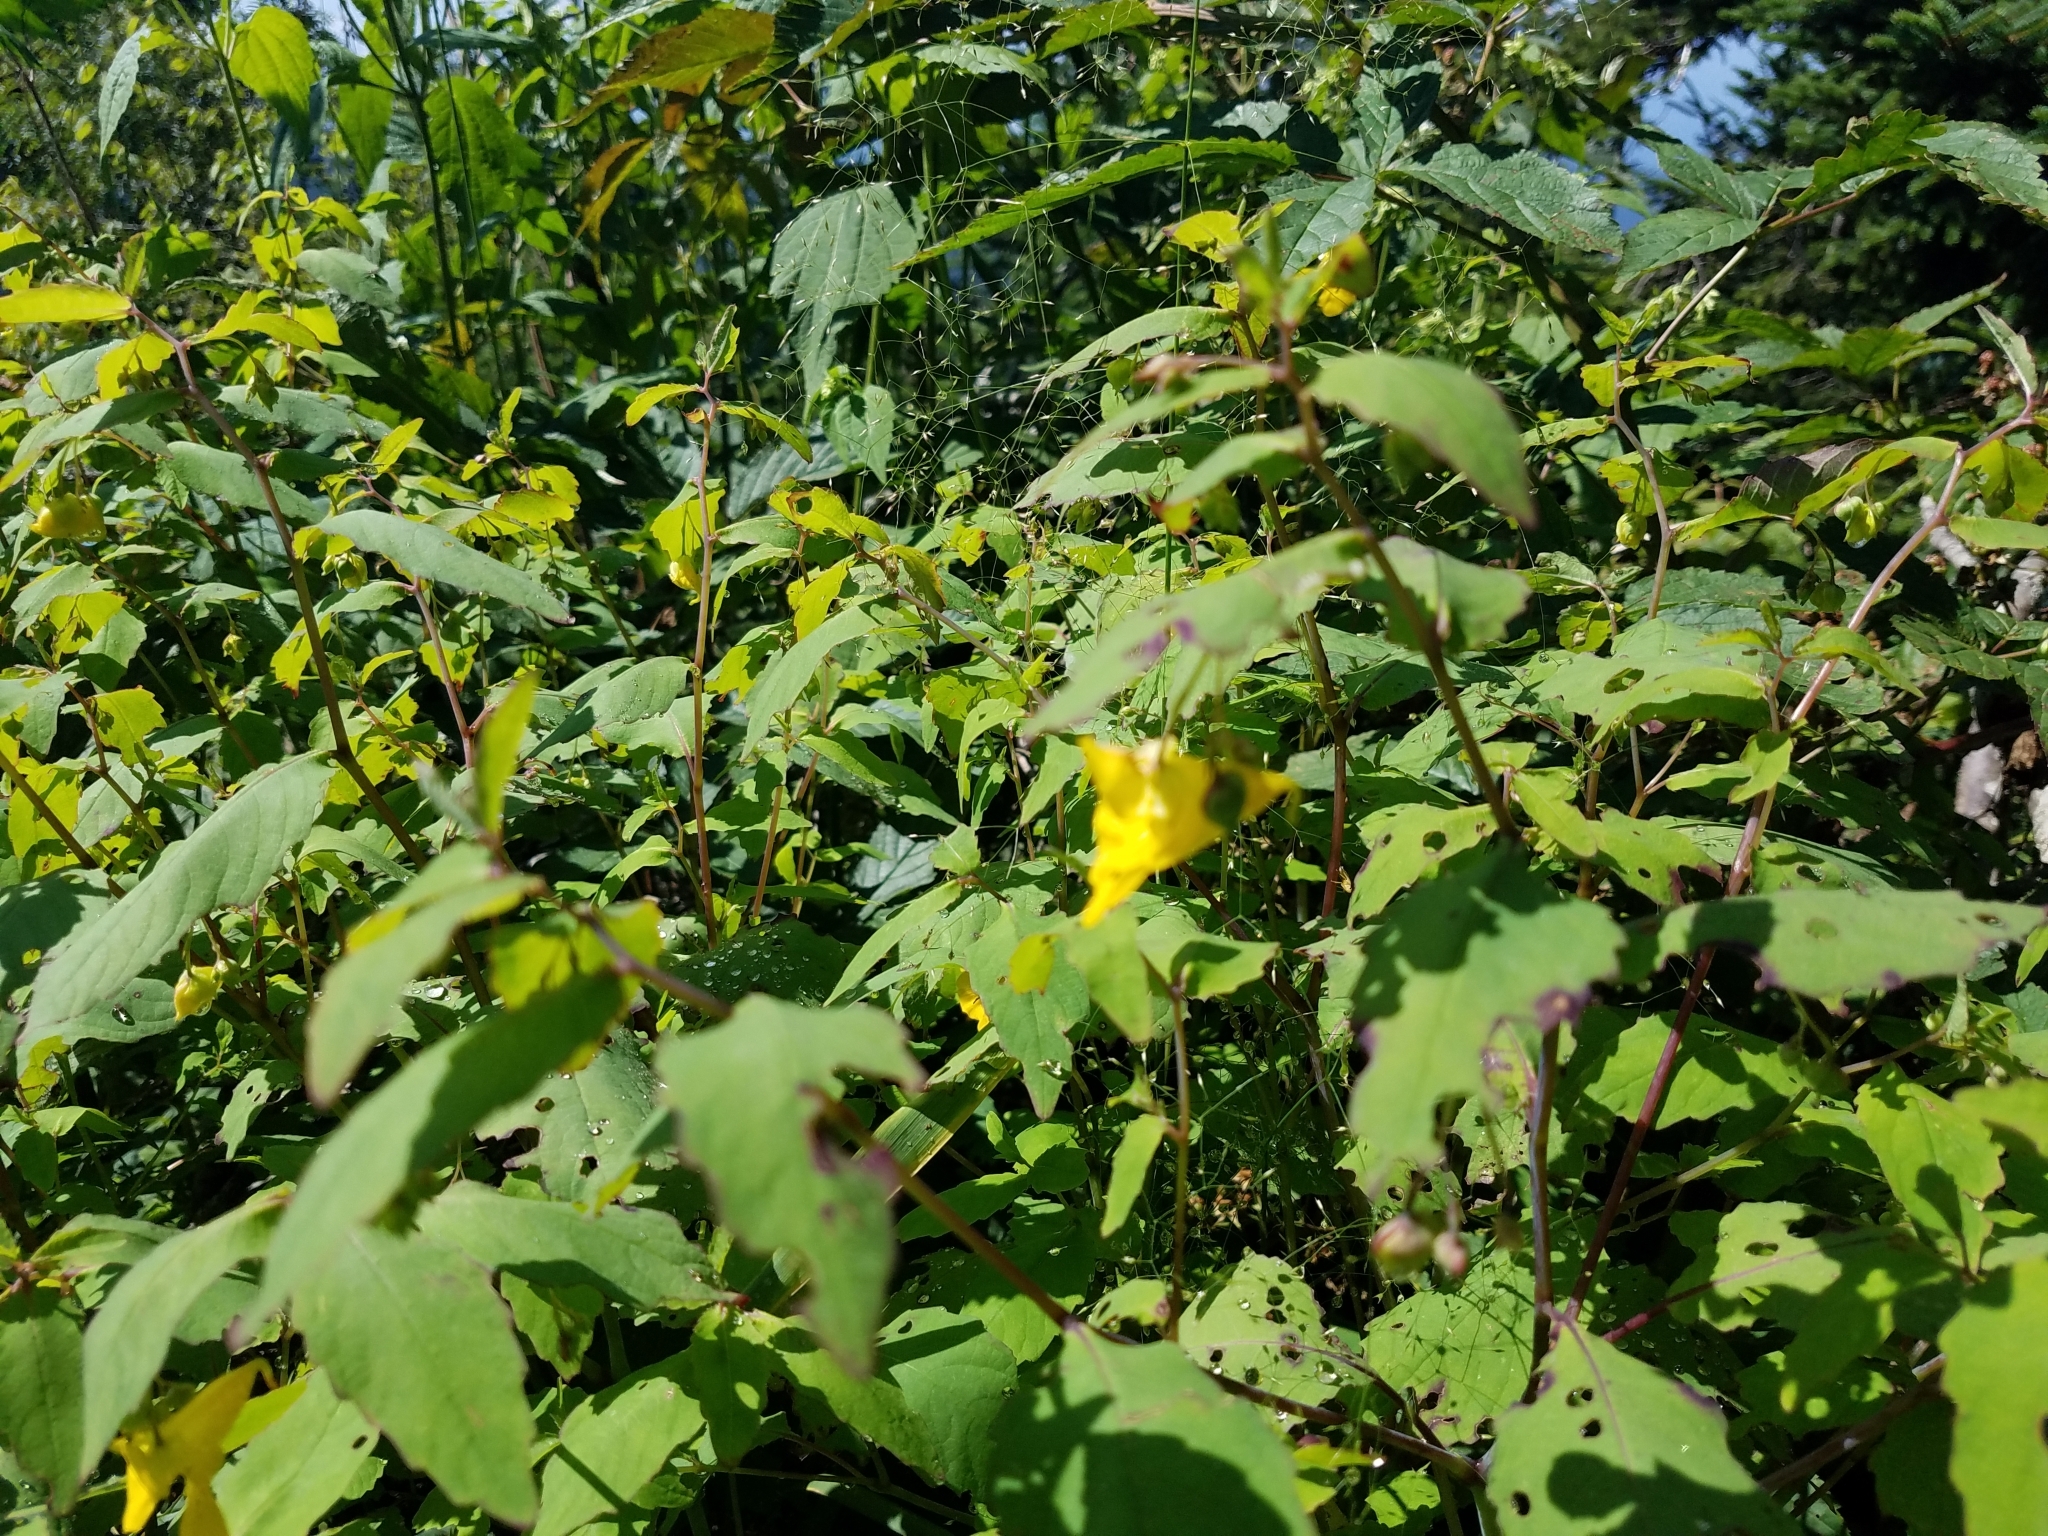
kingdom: Plantae
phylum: Tracheophyta
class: Magnoliopsida
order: Ericales
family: Balsaminaceae
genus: Impatiens
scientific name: Impatiens pallida
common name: Pale snapweed
